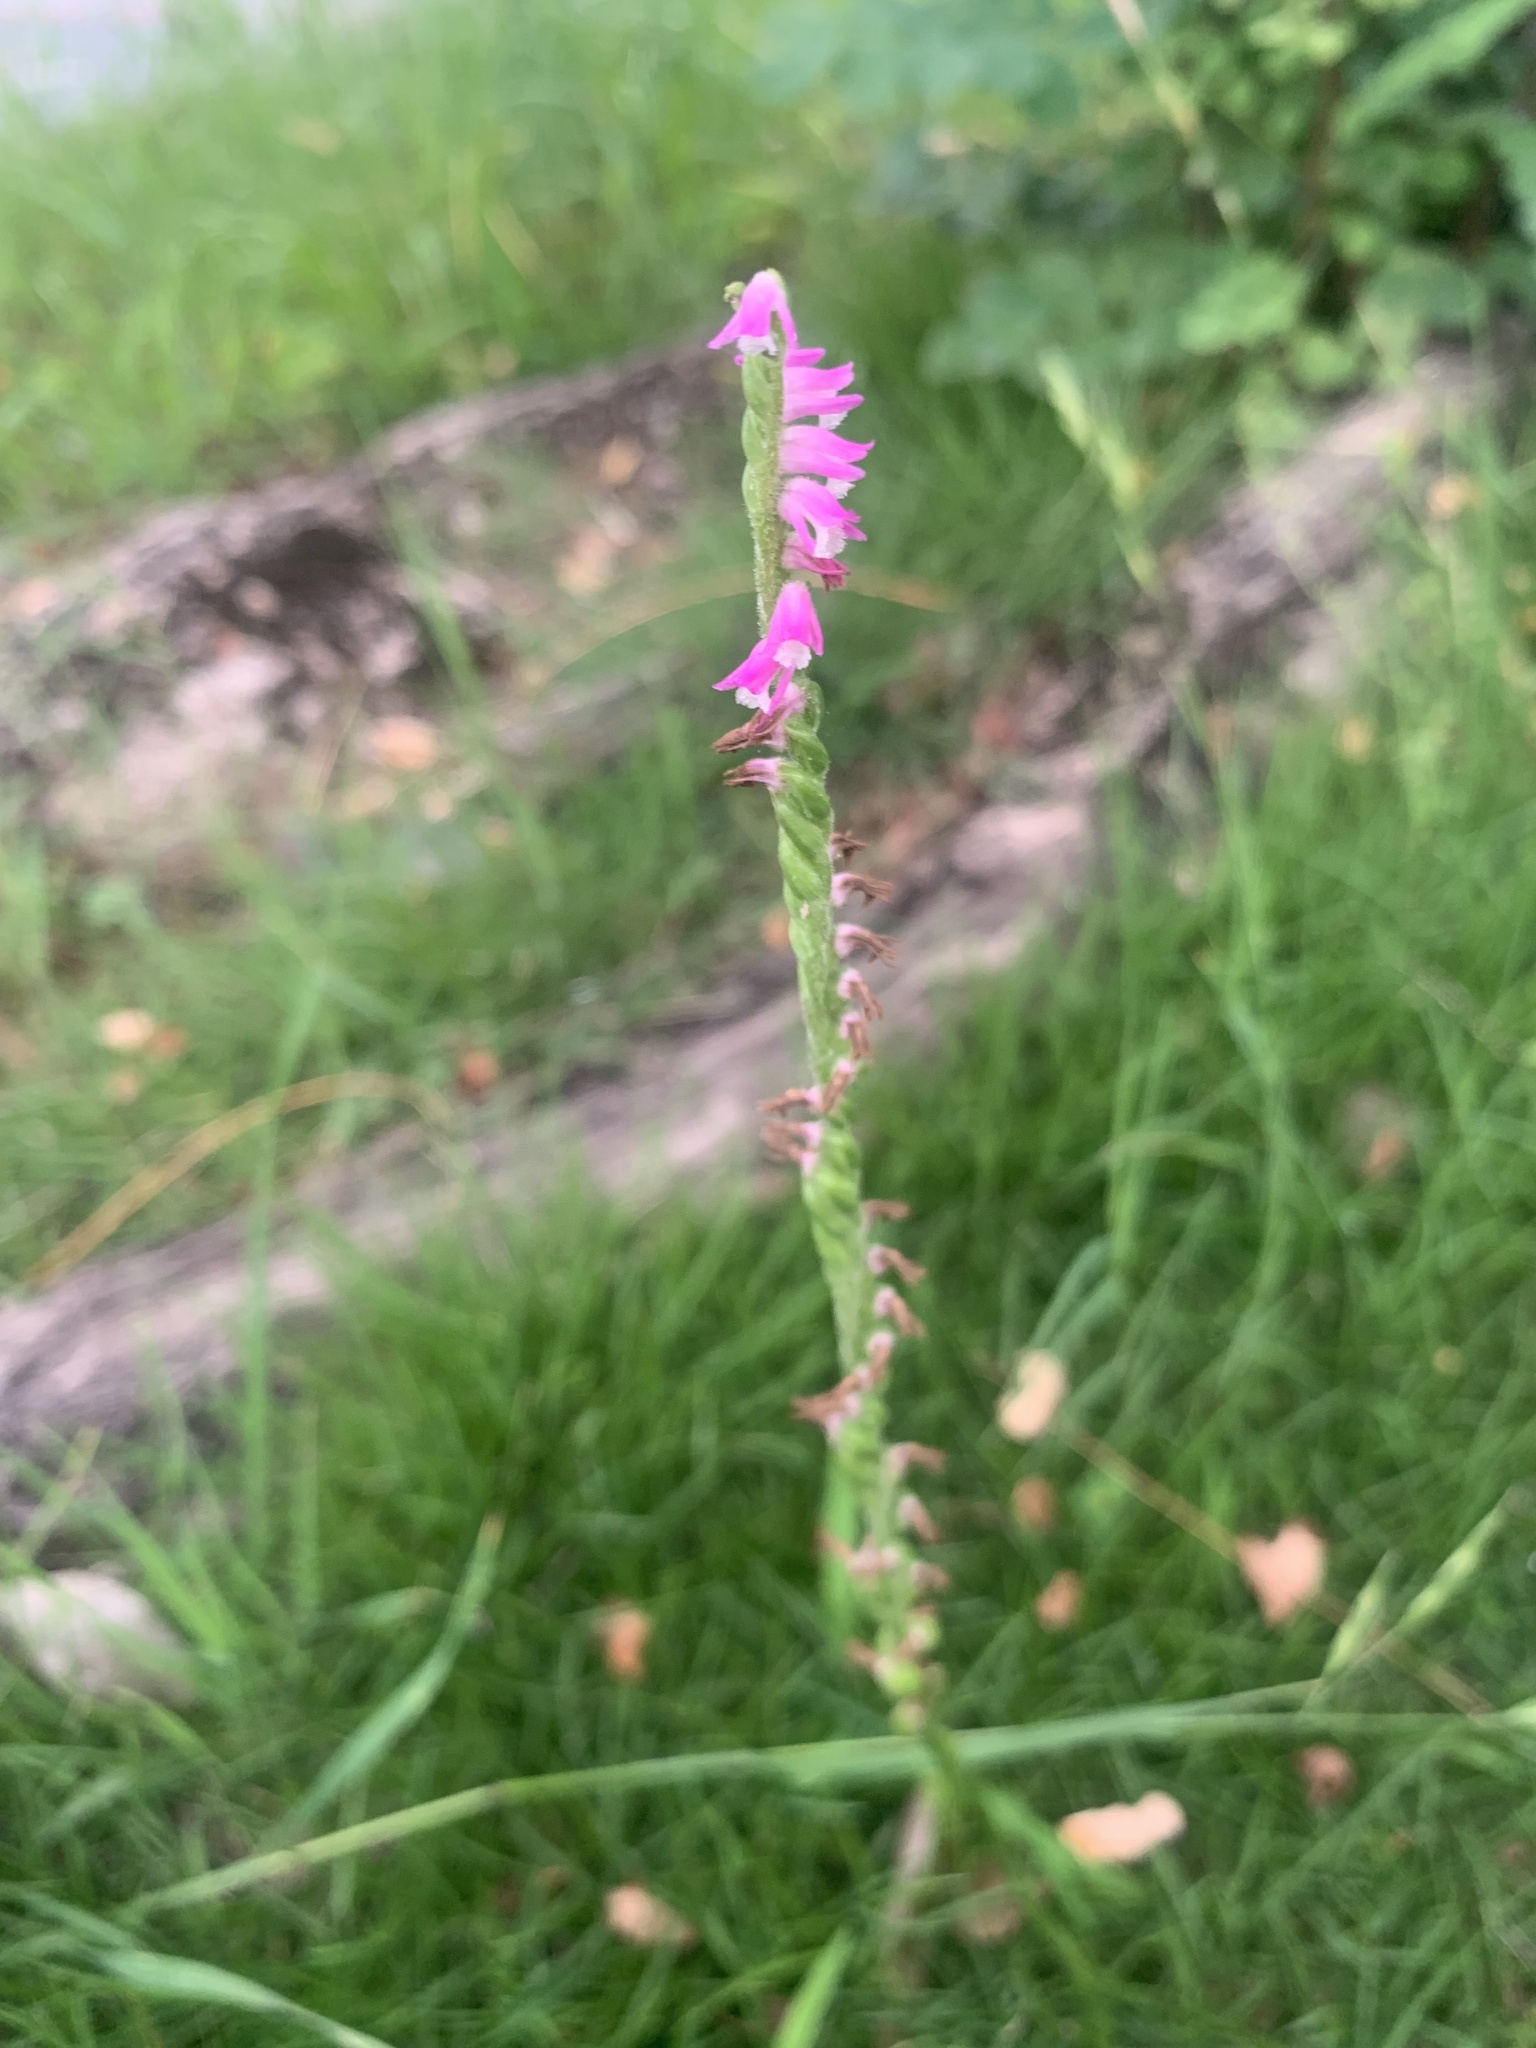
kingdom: Plantae
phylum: Tracheophyta
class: Liliopsida
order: Asparagales
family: Orchidaceae
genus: Spiranthes
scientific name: Spiranthes australis
